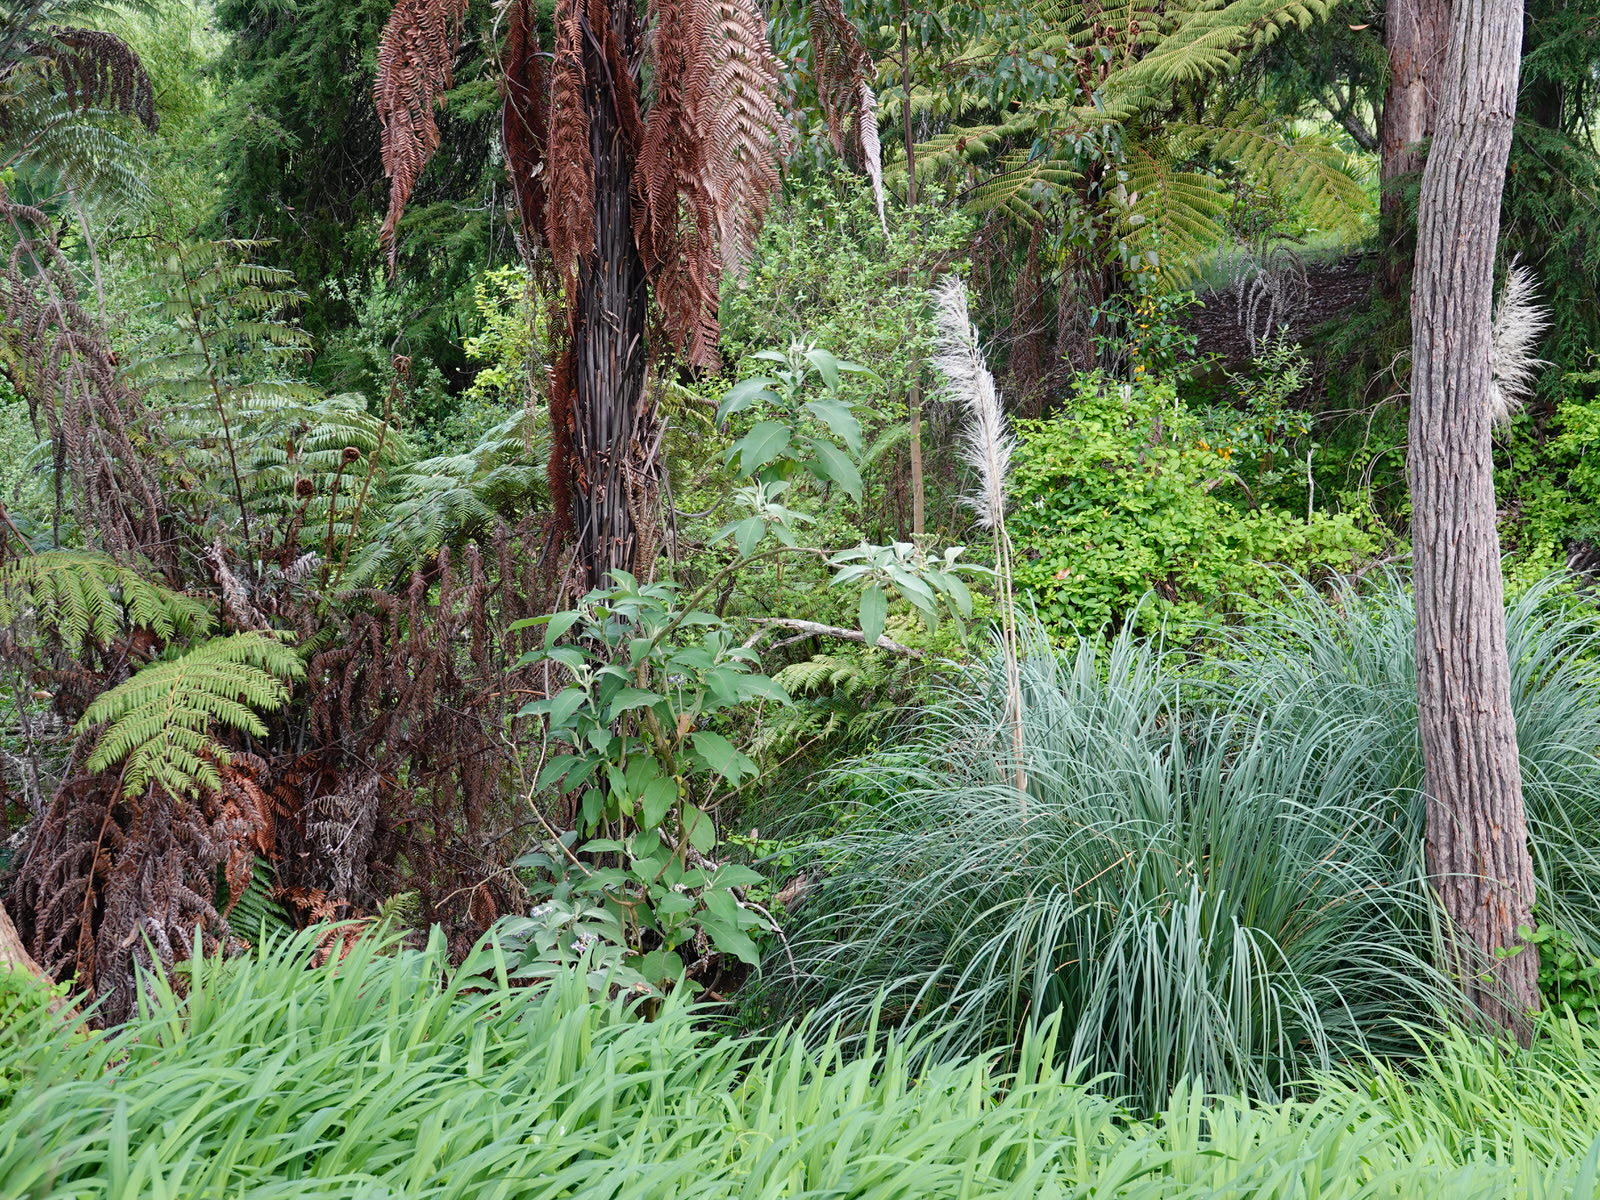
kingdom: Plantae
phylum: Tracheophyta
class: Magnoliopsida
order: Solanales
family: Solanaceae
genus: Solanum
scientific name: Solanum mauritianum
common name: Earleaf nightshade
